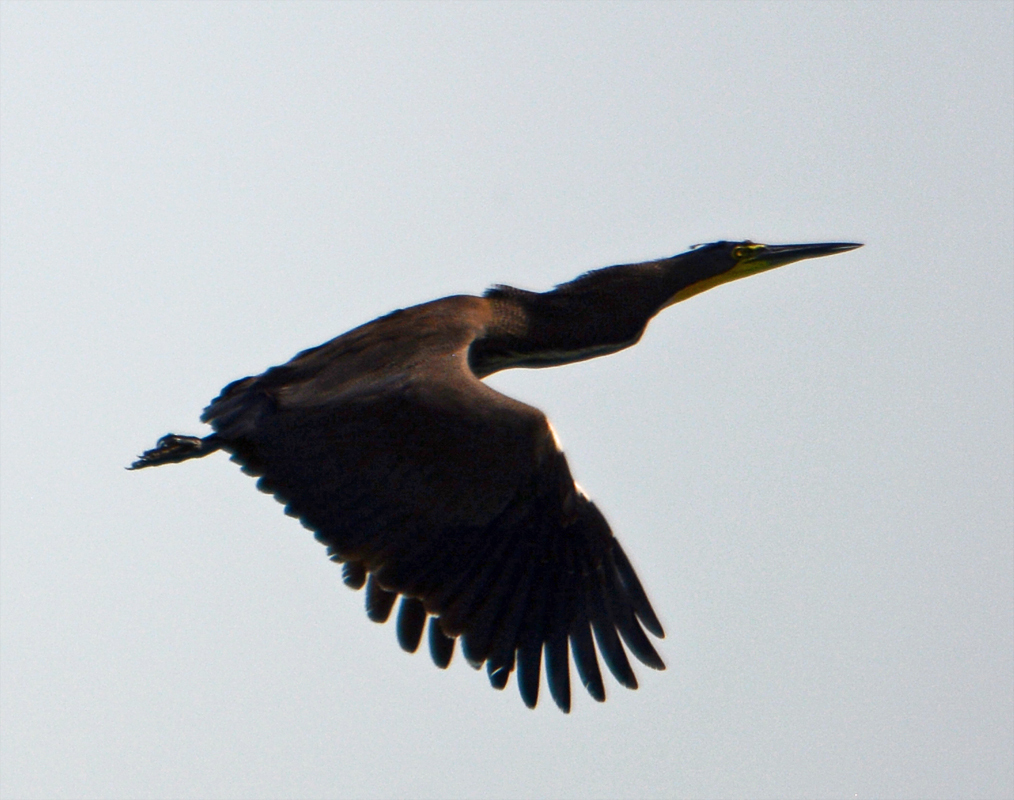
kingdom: Animalia
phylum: Chordata
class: Aves
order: Pelecaniformes
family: Ardeidae
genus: Tigrisoma
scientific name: Tigrisoma mexicanum
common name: Bare-throated tiger-heron
